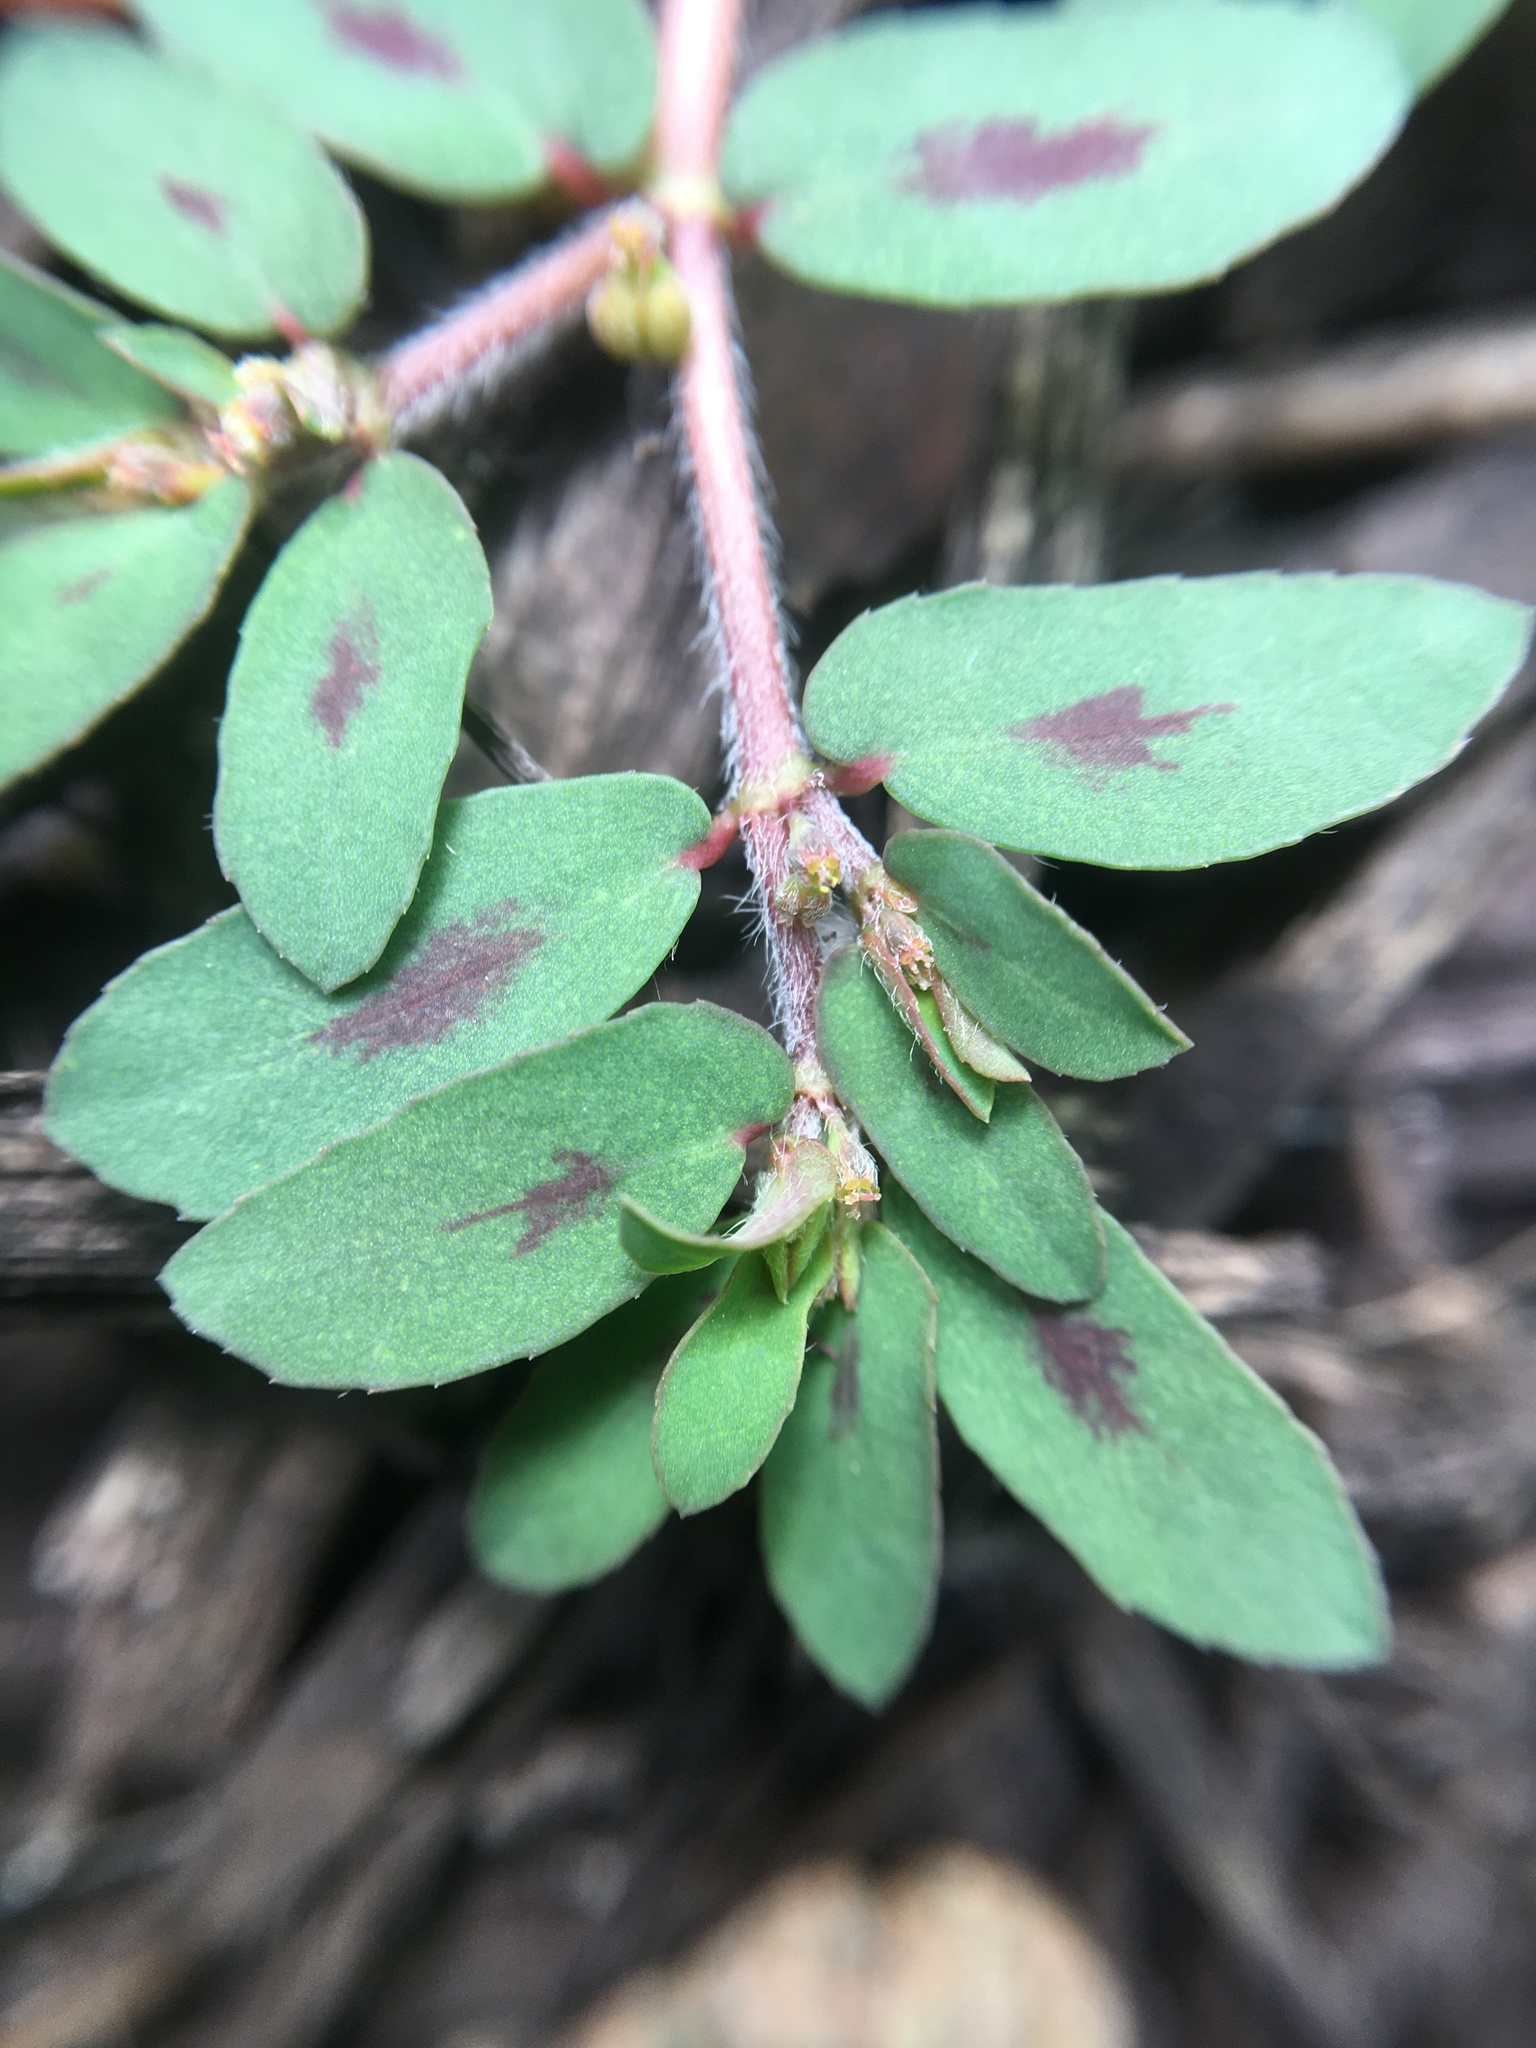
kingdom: Plantae
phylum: Tracheophyta
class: Magnoliopsida
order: Malpighiales
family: Euphorbiaceae
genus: Euphorbia
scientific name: Euphorbia maculata
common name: Spotted spurge
